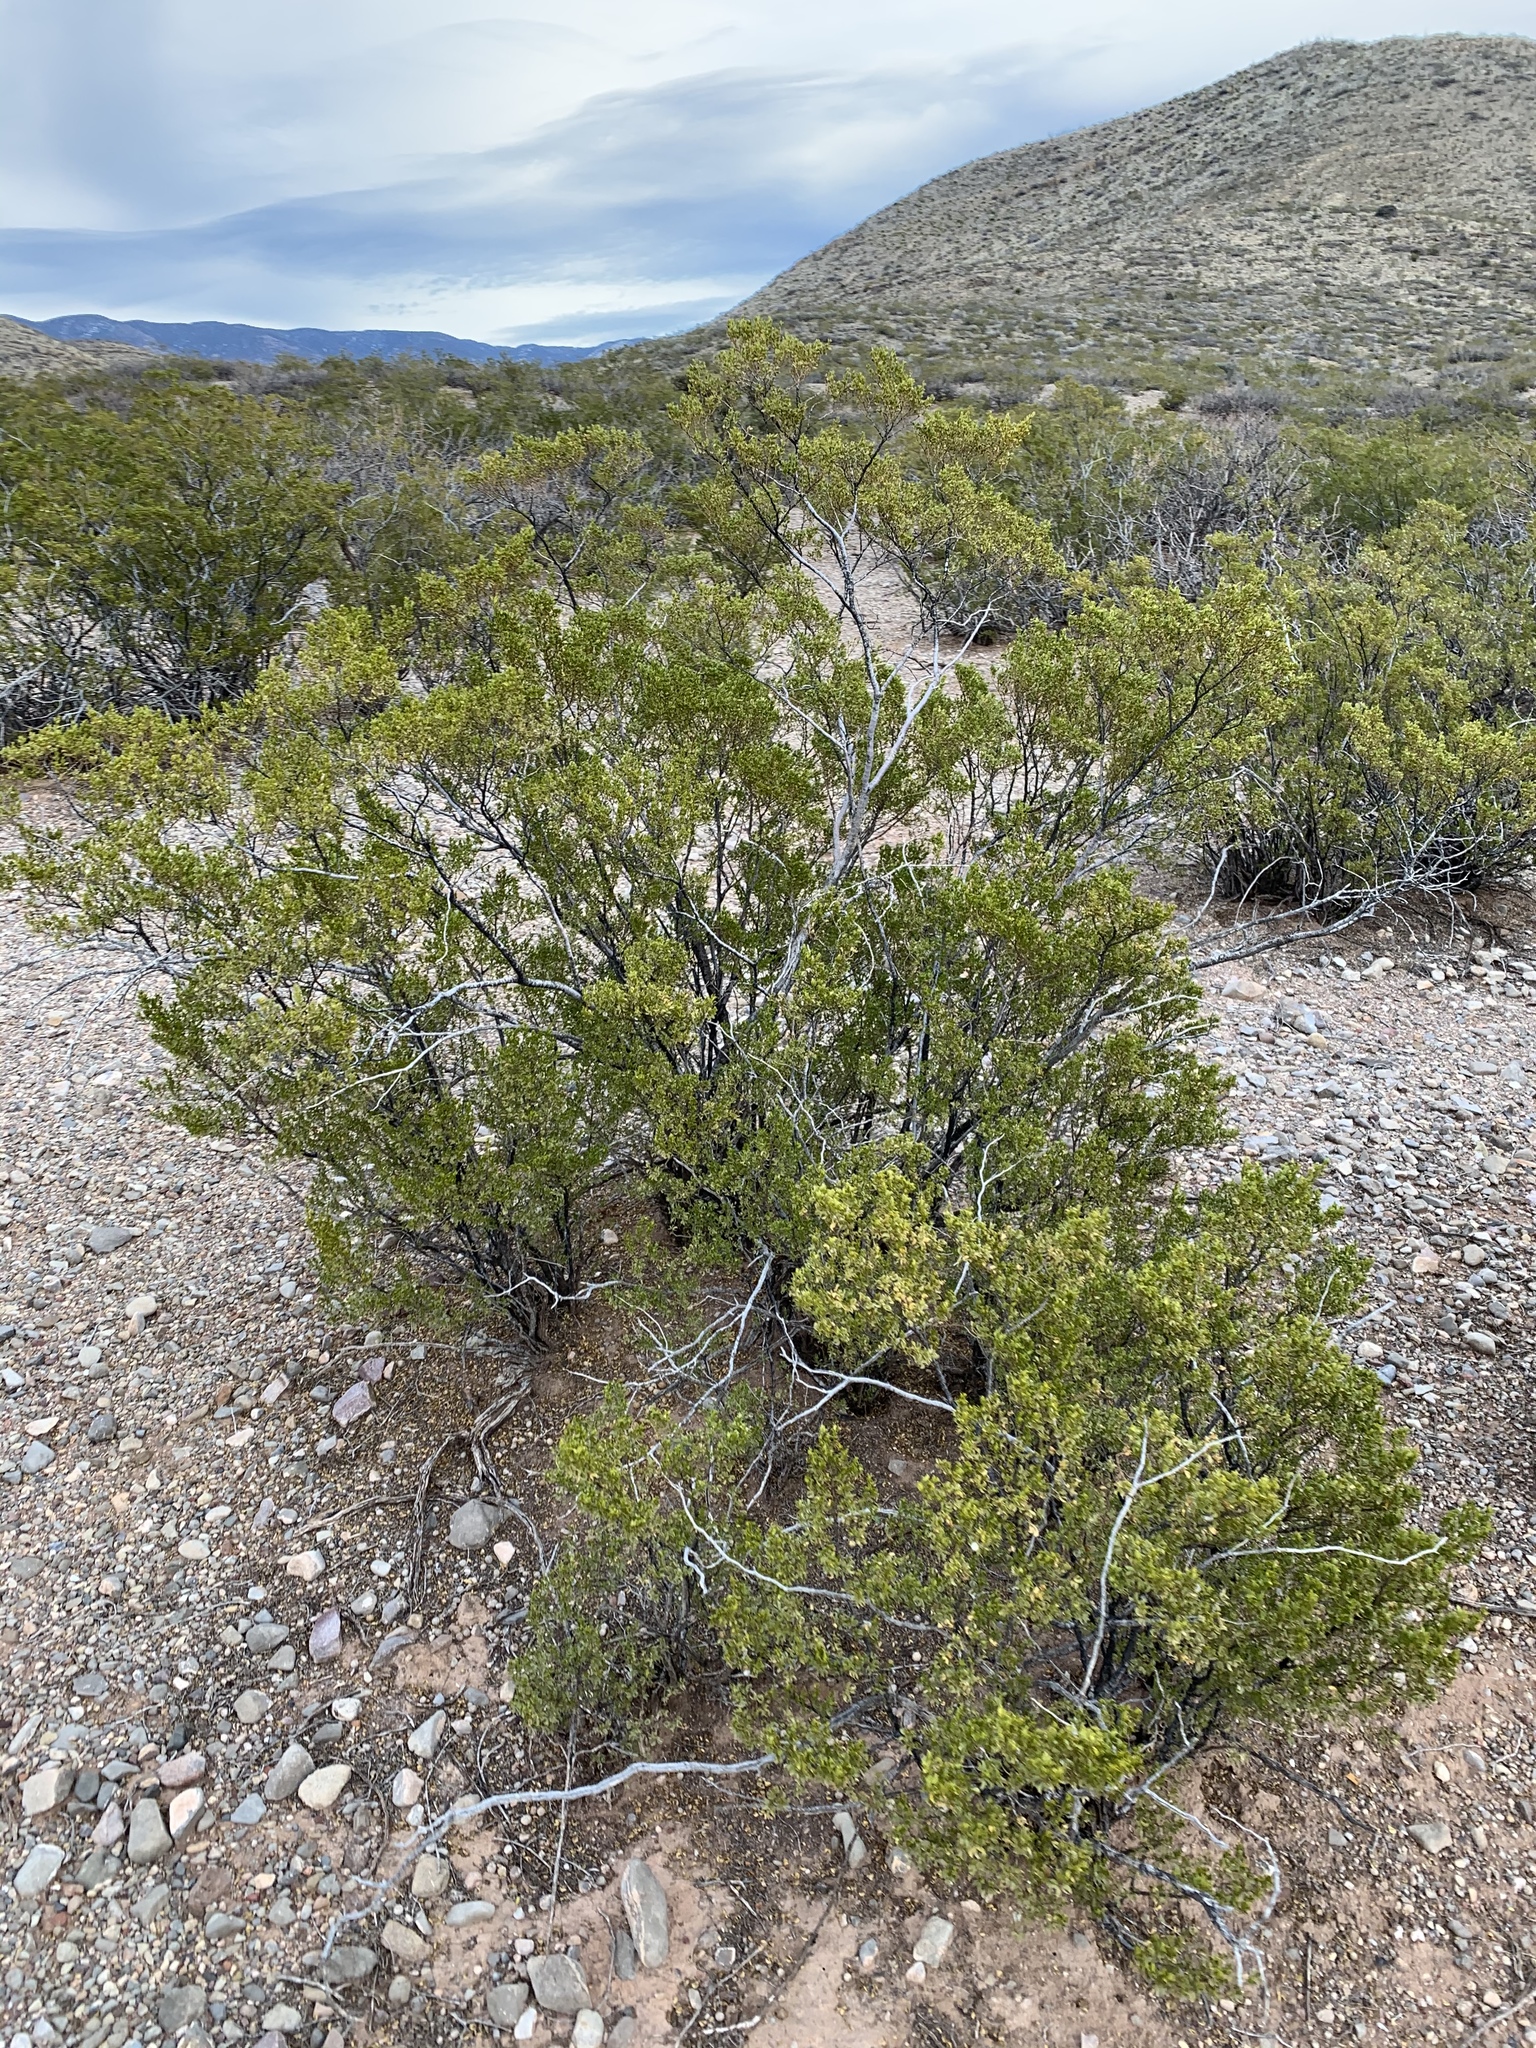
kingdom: Plantae
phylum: Tracheophyta
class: Magnoliopsida
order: Zygophyllales
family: Zygophyllaceae
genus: Larrea
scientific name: Larrea tridentata
